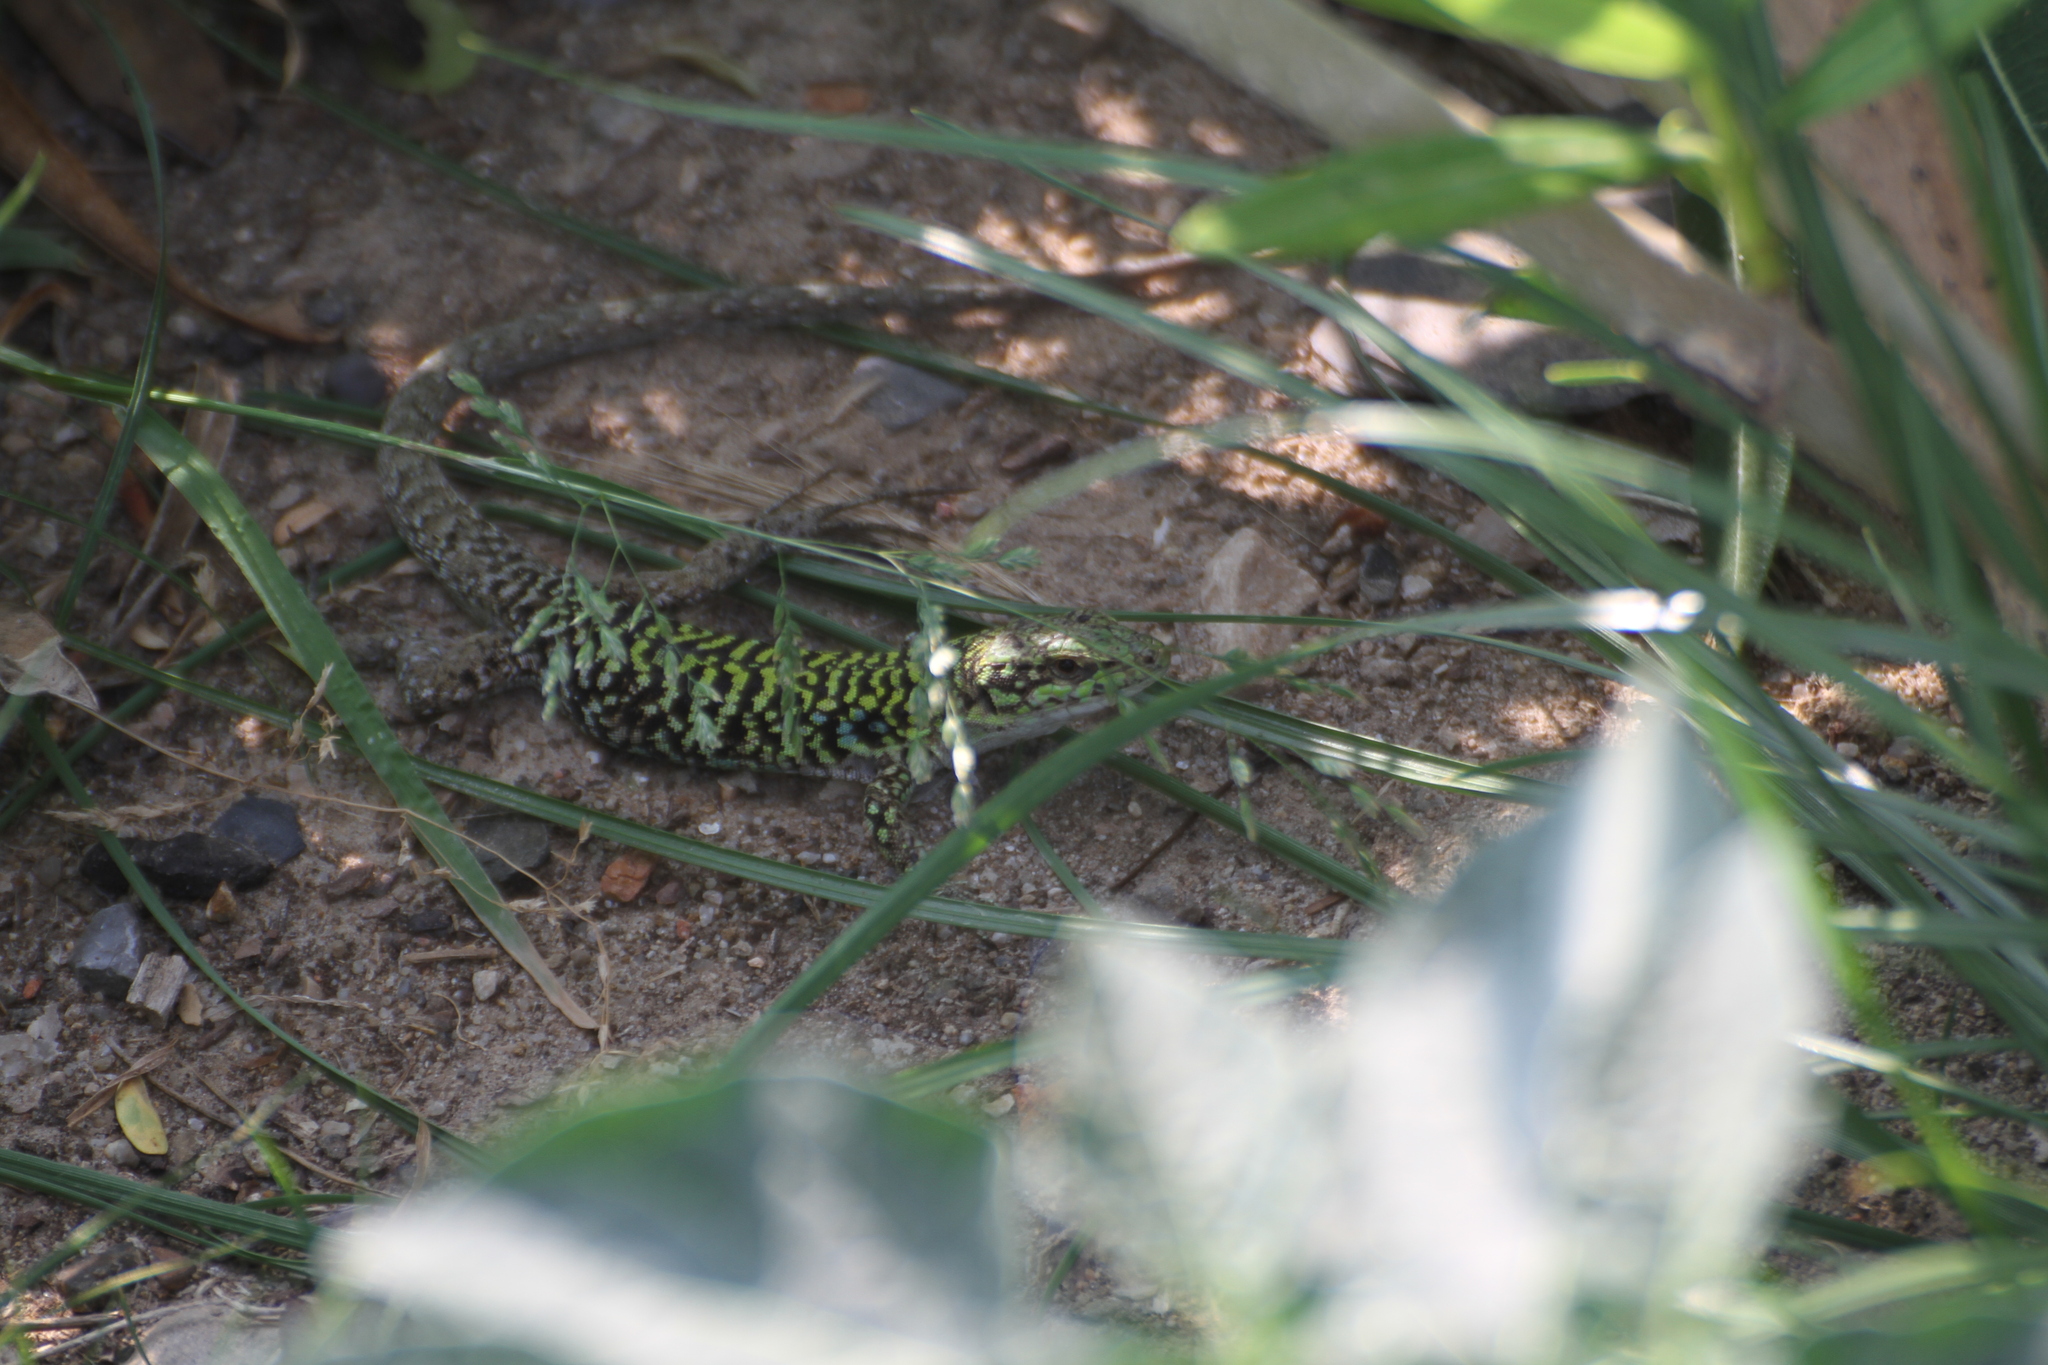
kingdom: Animalia
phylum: Chordata
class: Squamata
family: Lacertidae
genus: Podarcis
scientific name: Podarcis siculus
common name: Italian wall lizard
